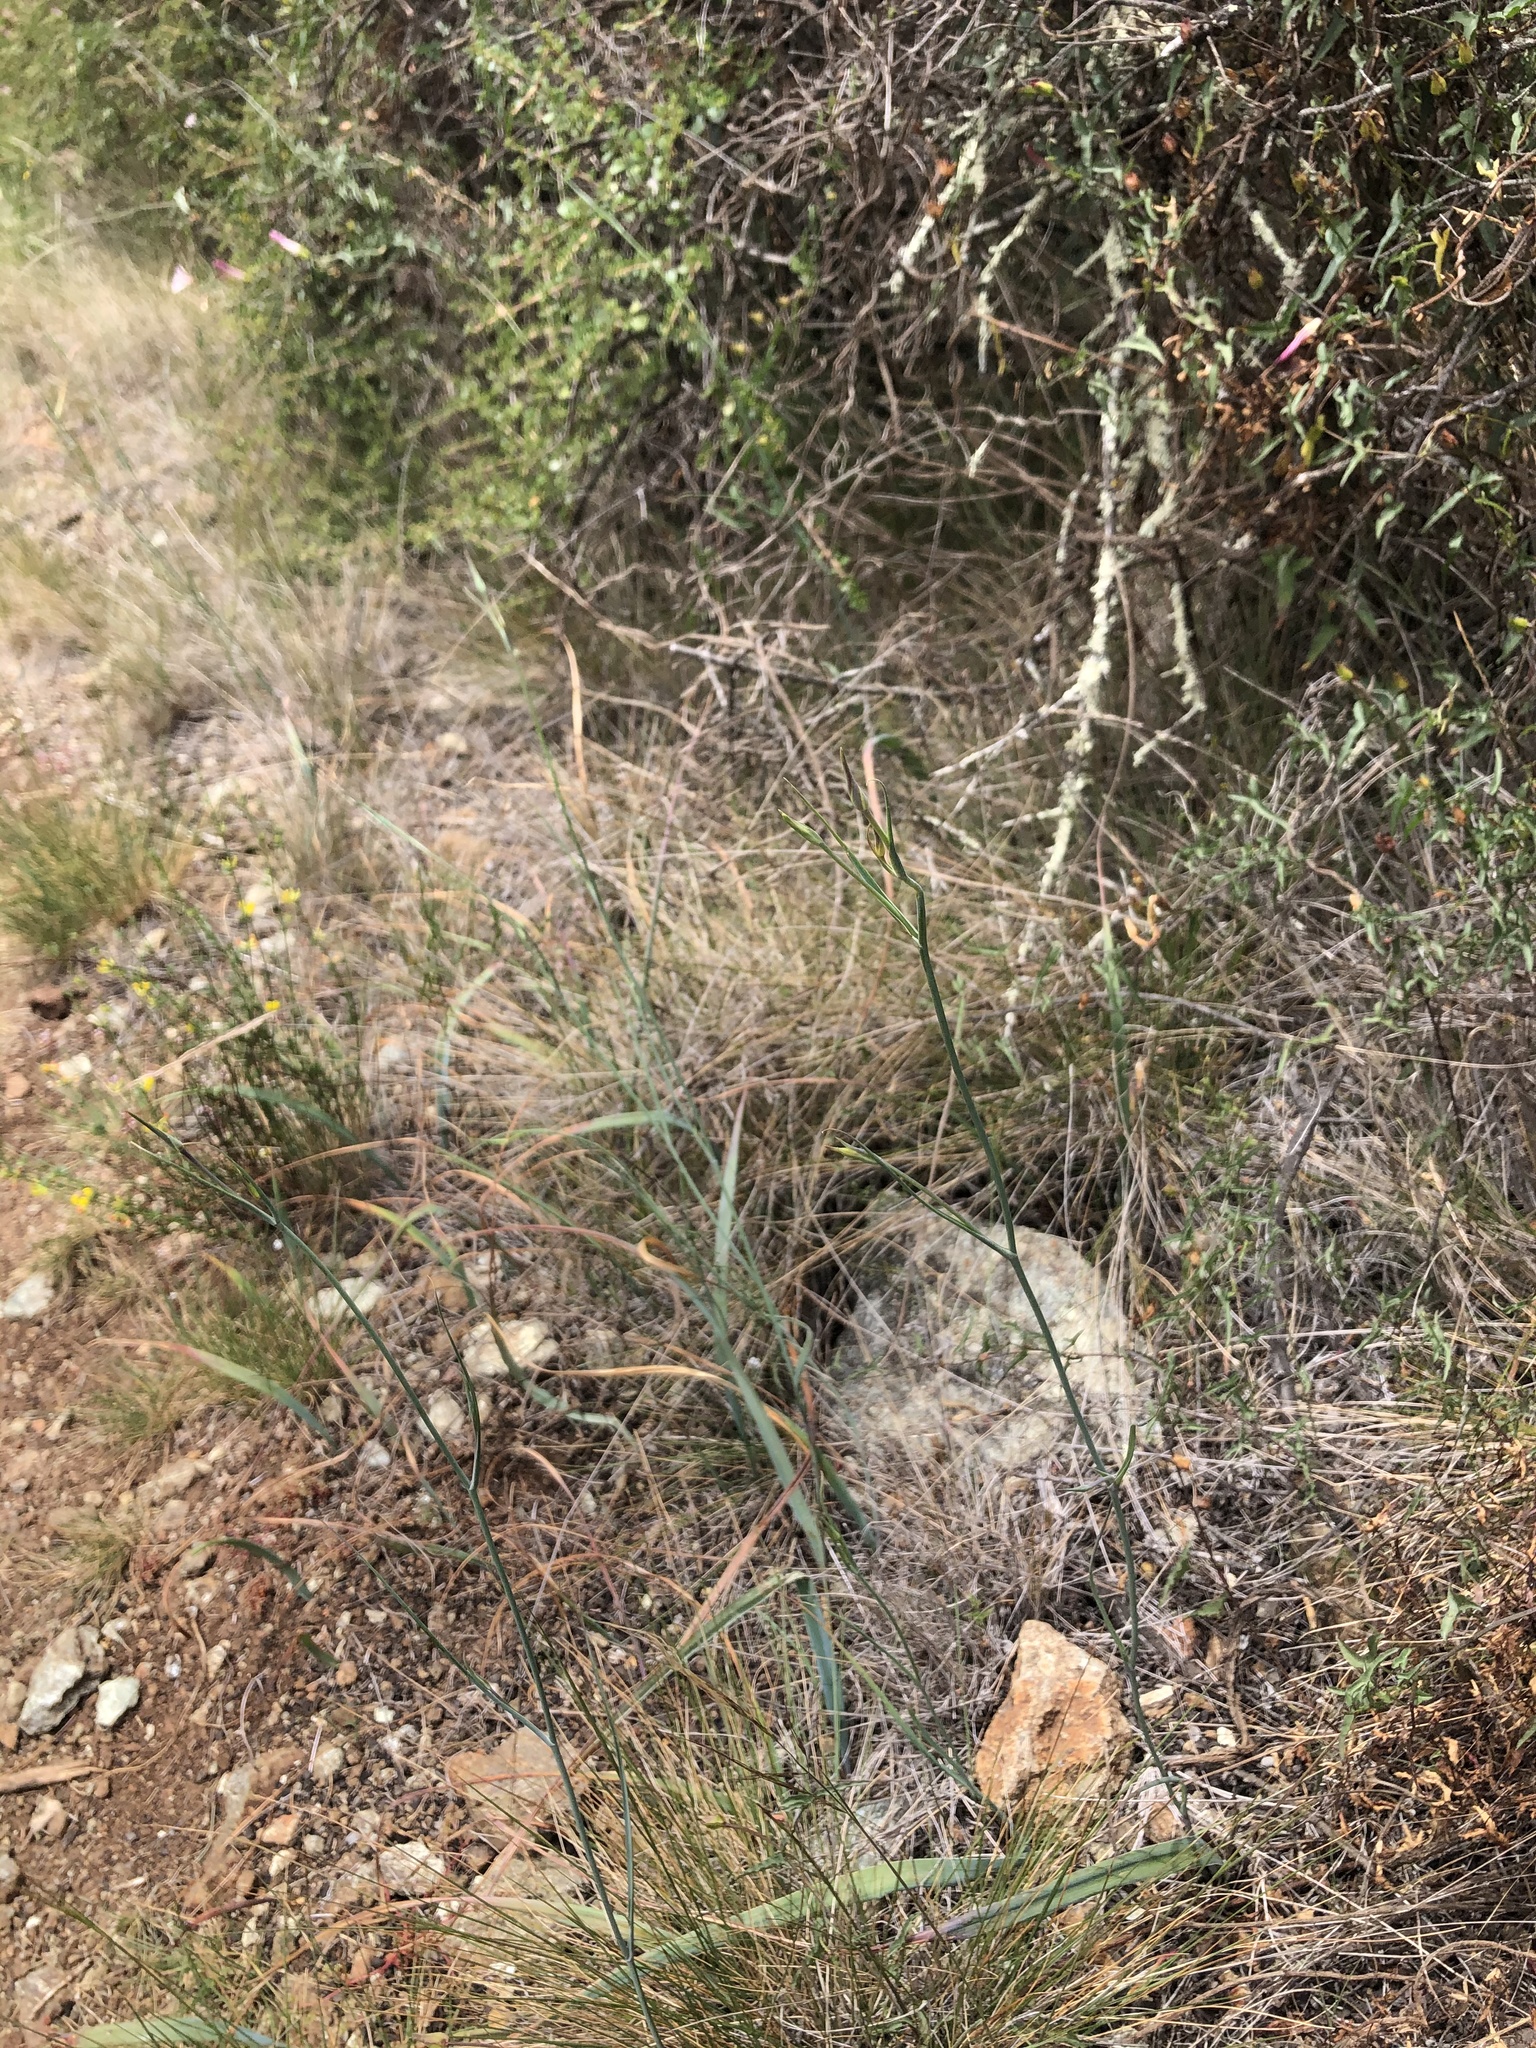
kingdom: Plantae
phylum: Tracheophyta
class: Liliopsida
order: Liliales
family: Liliaceae
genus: Calochortus
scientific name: Calochortus obispoensis
